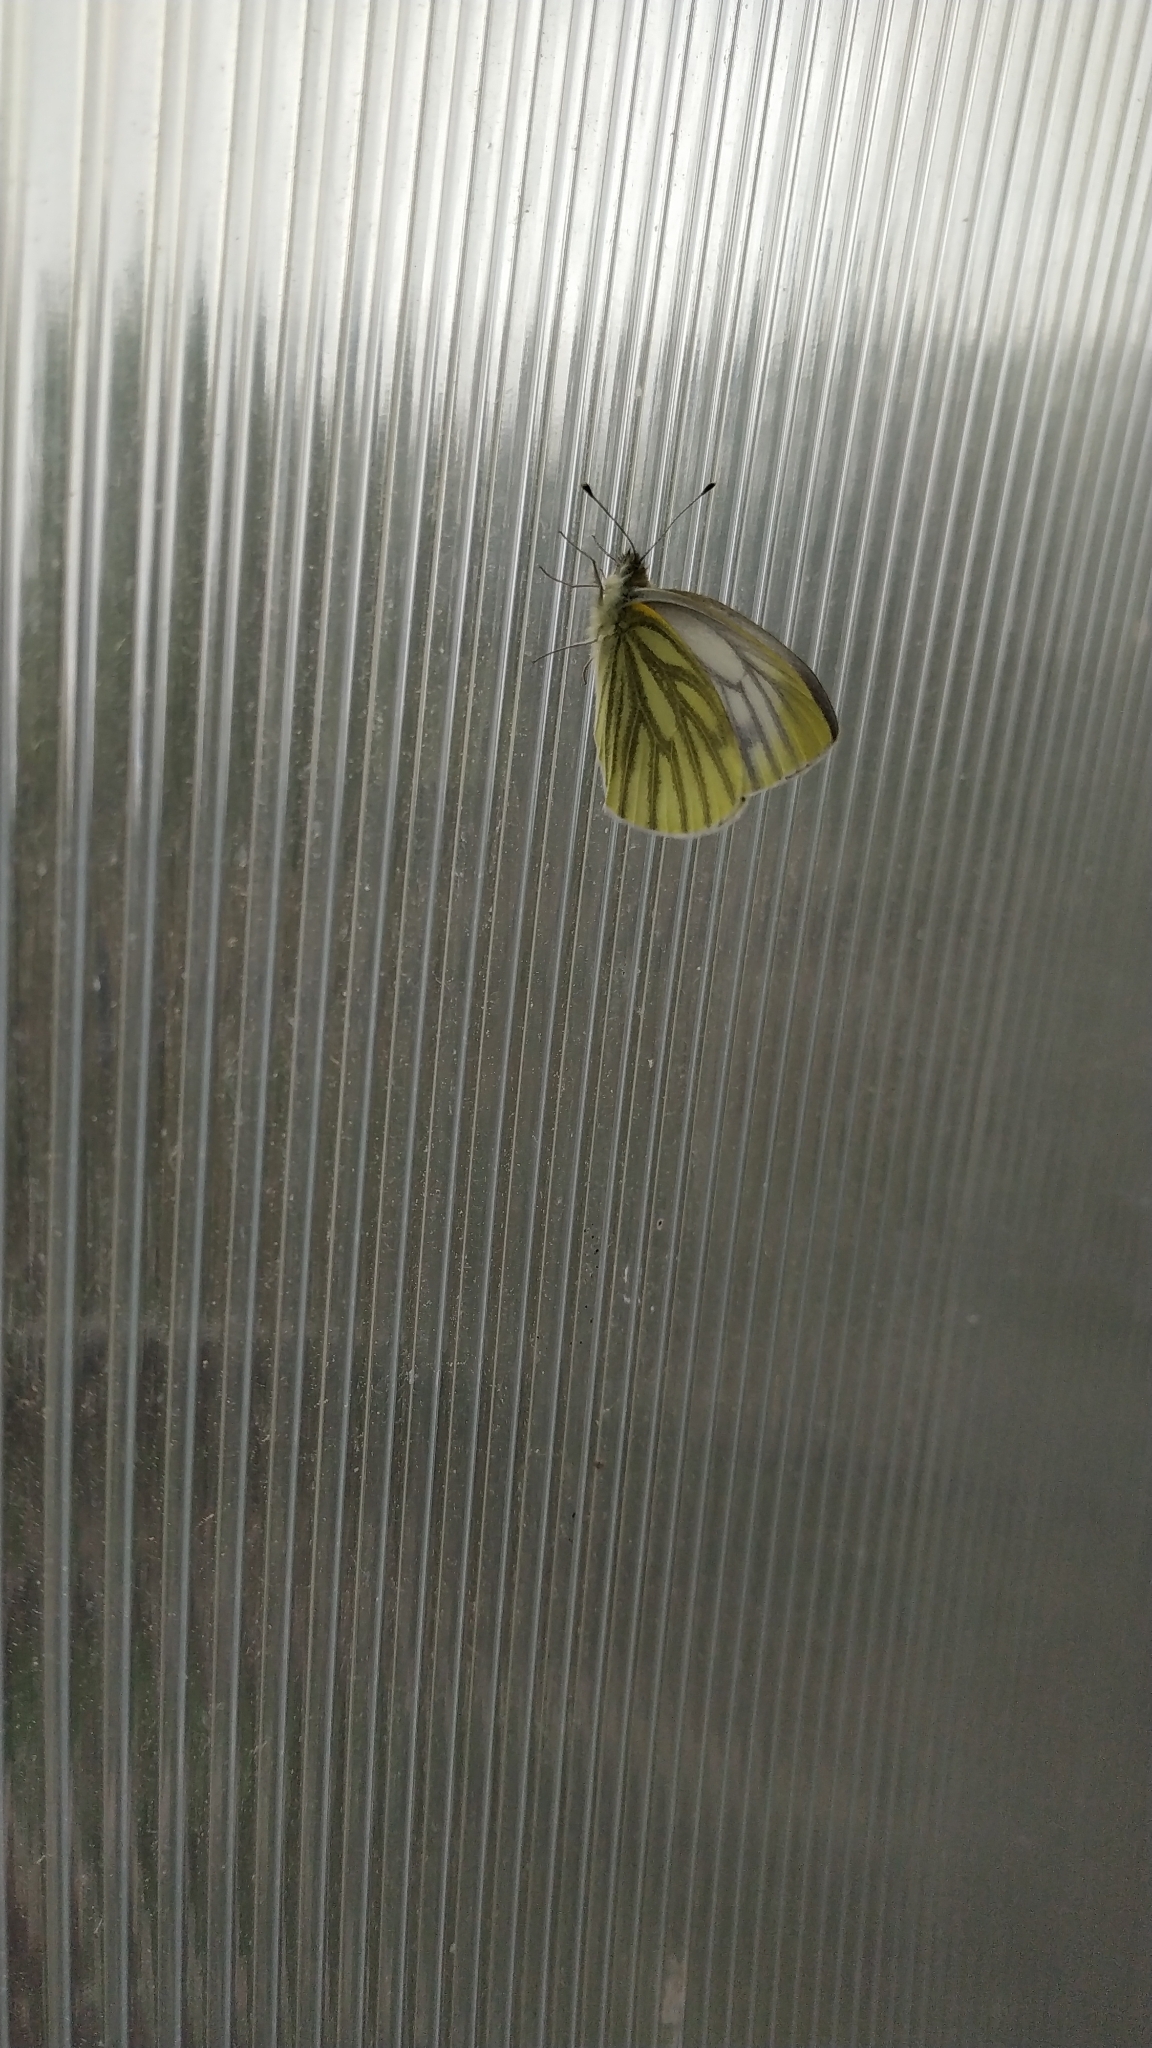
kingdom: Animalia
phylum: Arthropoda
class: Insecta
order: Lepidoptera
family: Pieridae
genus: Pieris
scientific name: Pieris napi
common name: Green-veined white
